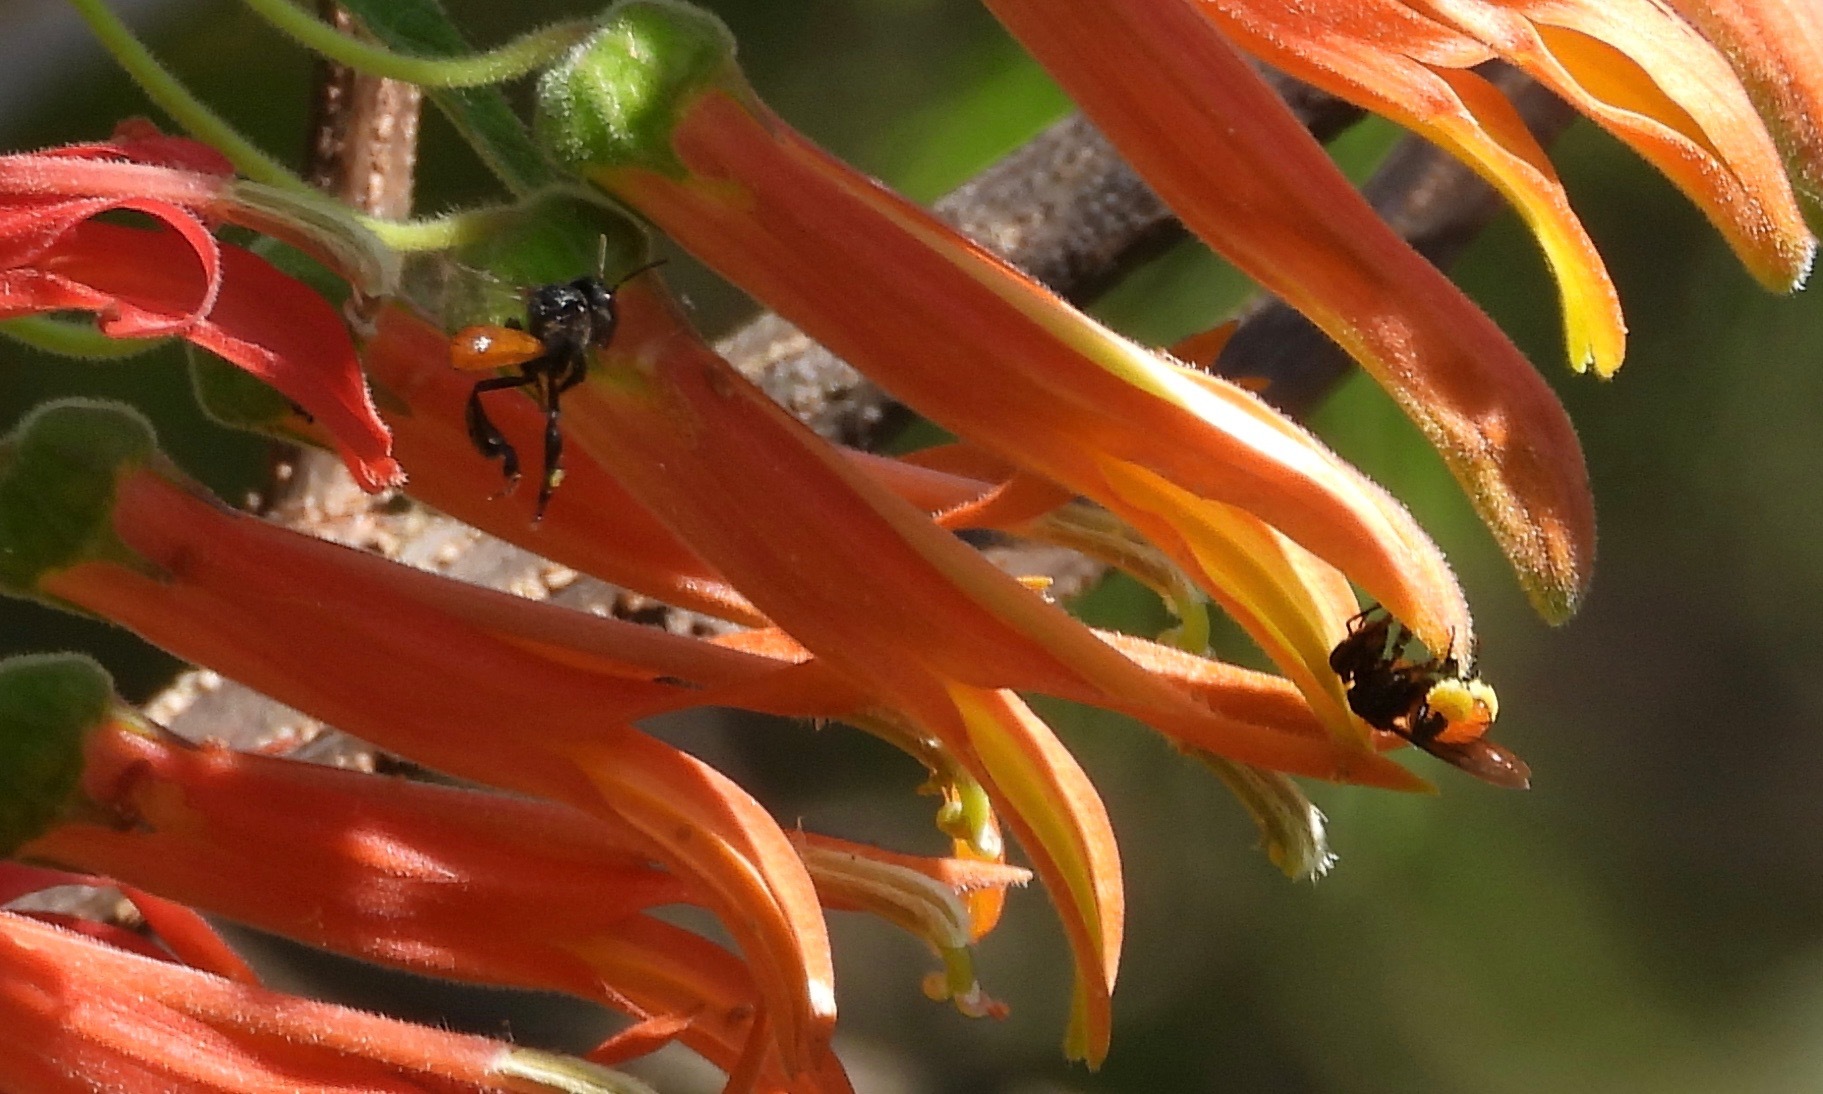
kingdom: Animalia
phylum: Arthropoda
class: Insecta
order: Hymenoptera
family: Apidae
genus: Trigona
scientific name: Trigona fulviventris
